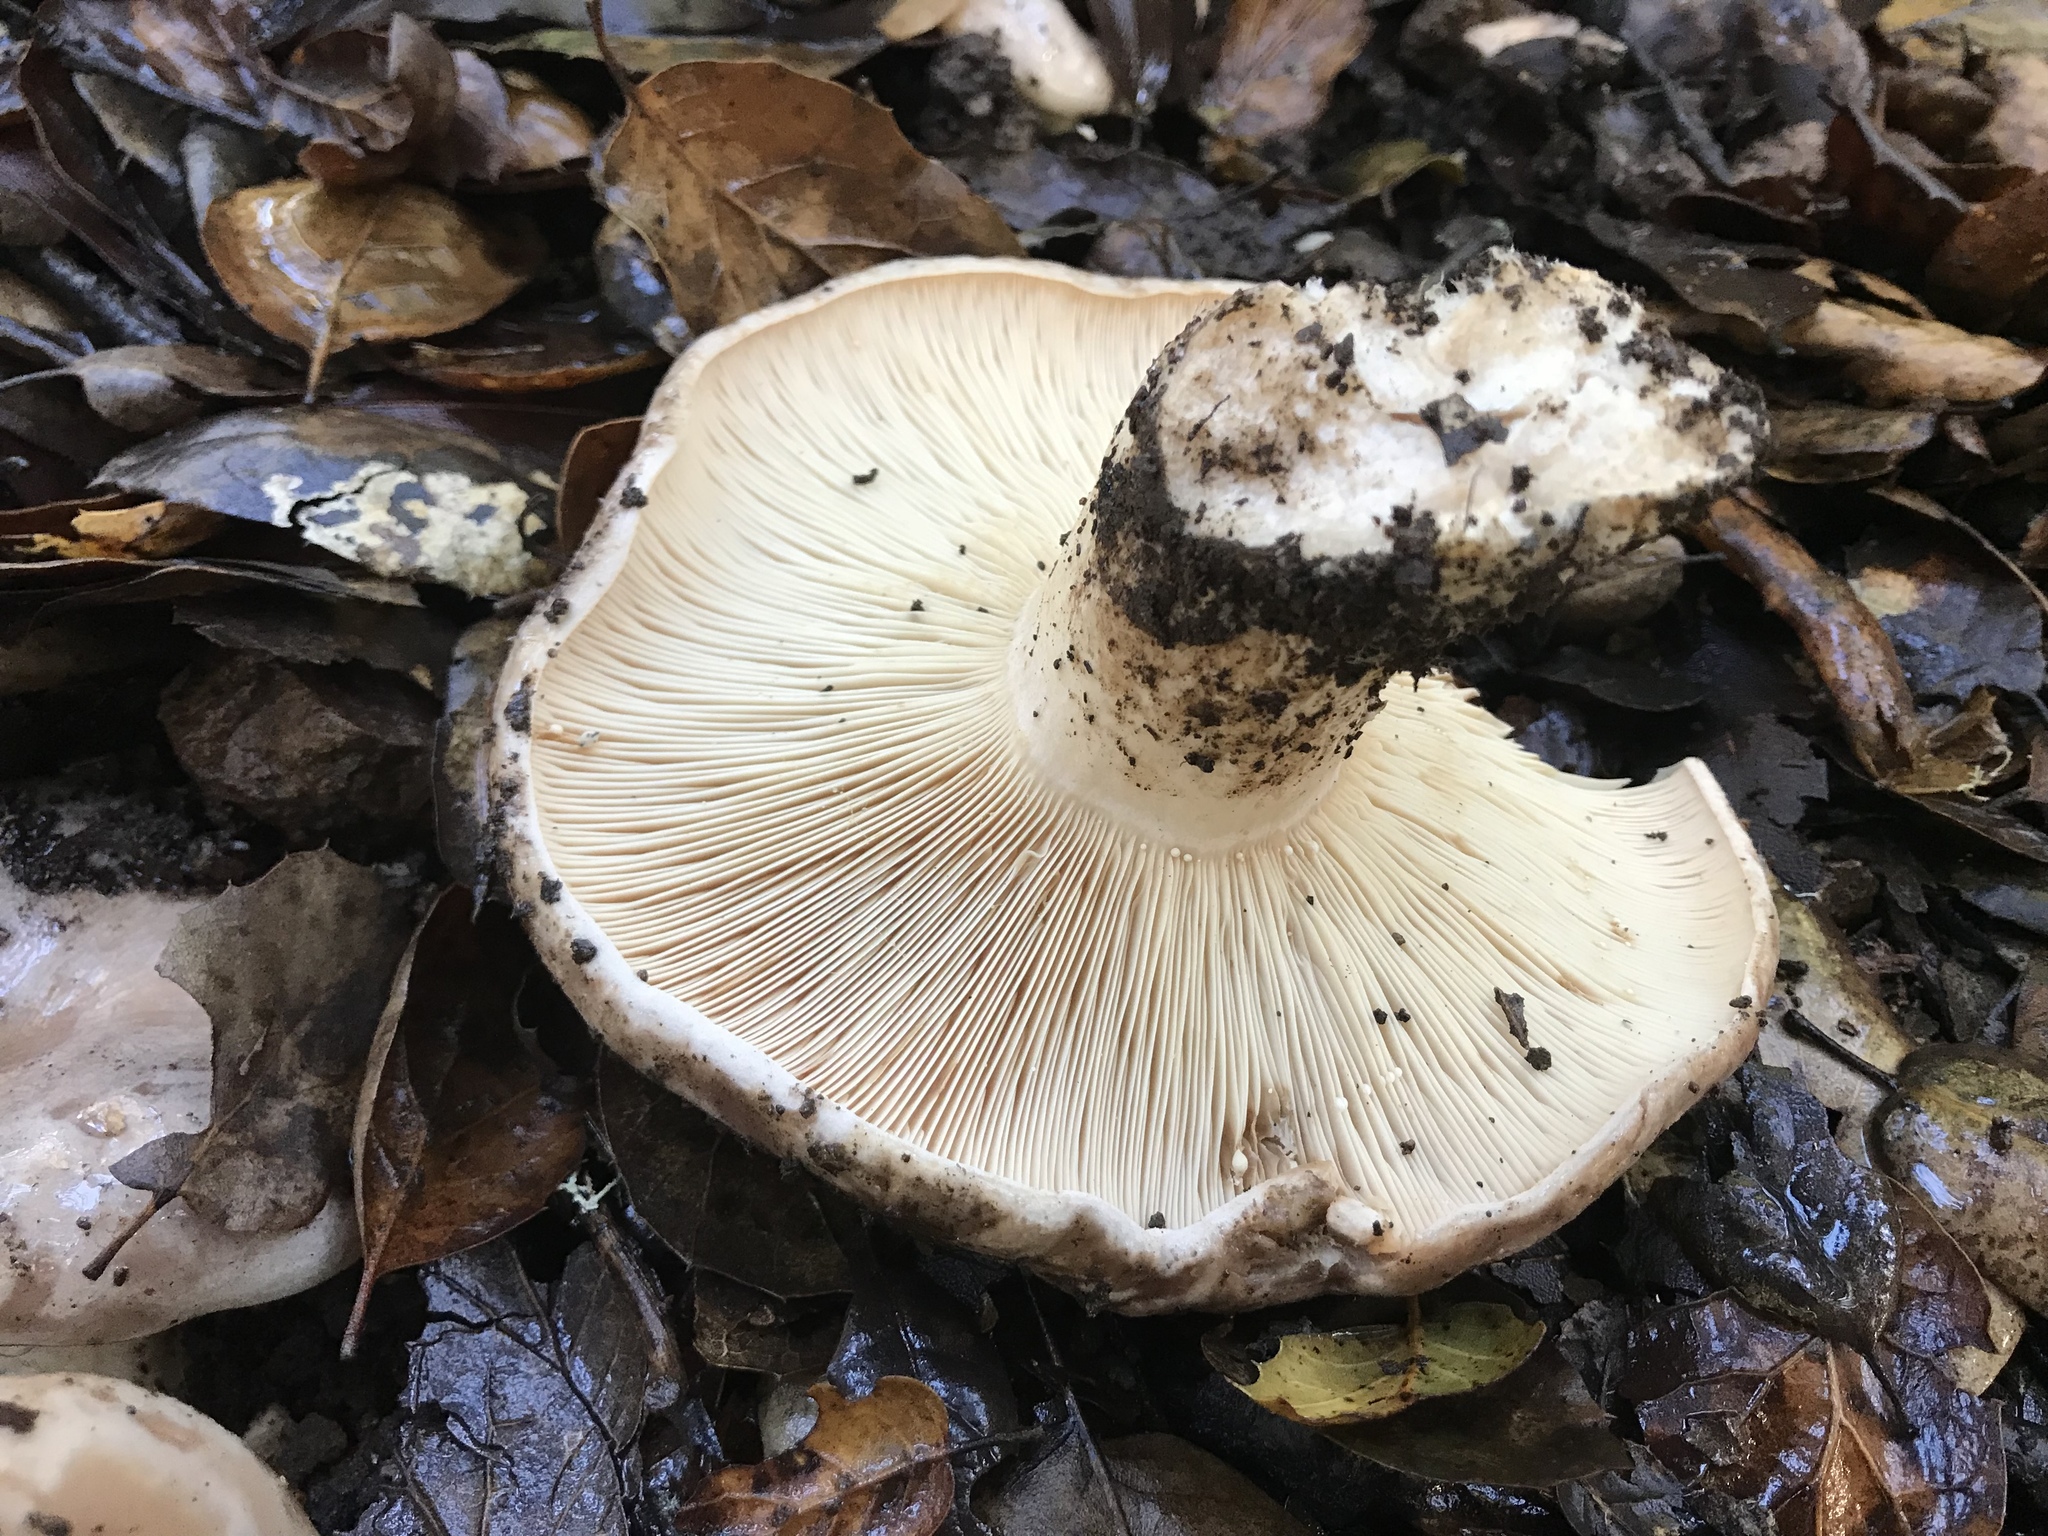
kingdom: Fungi
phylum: Basidiomycota
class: Agaricomycetes
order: Russulales
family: Russulaceae
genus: Lactarius
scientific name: Lactarius argillaceifolius
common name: Clay-gilled milkcap
